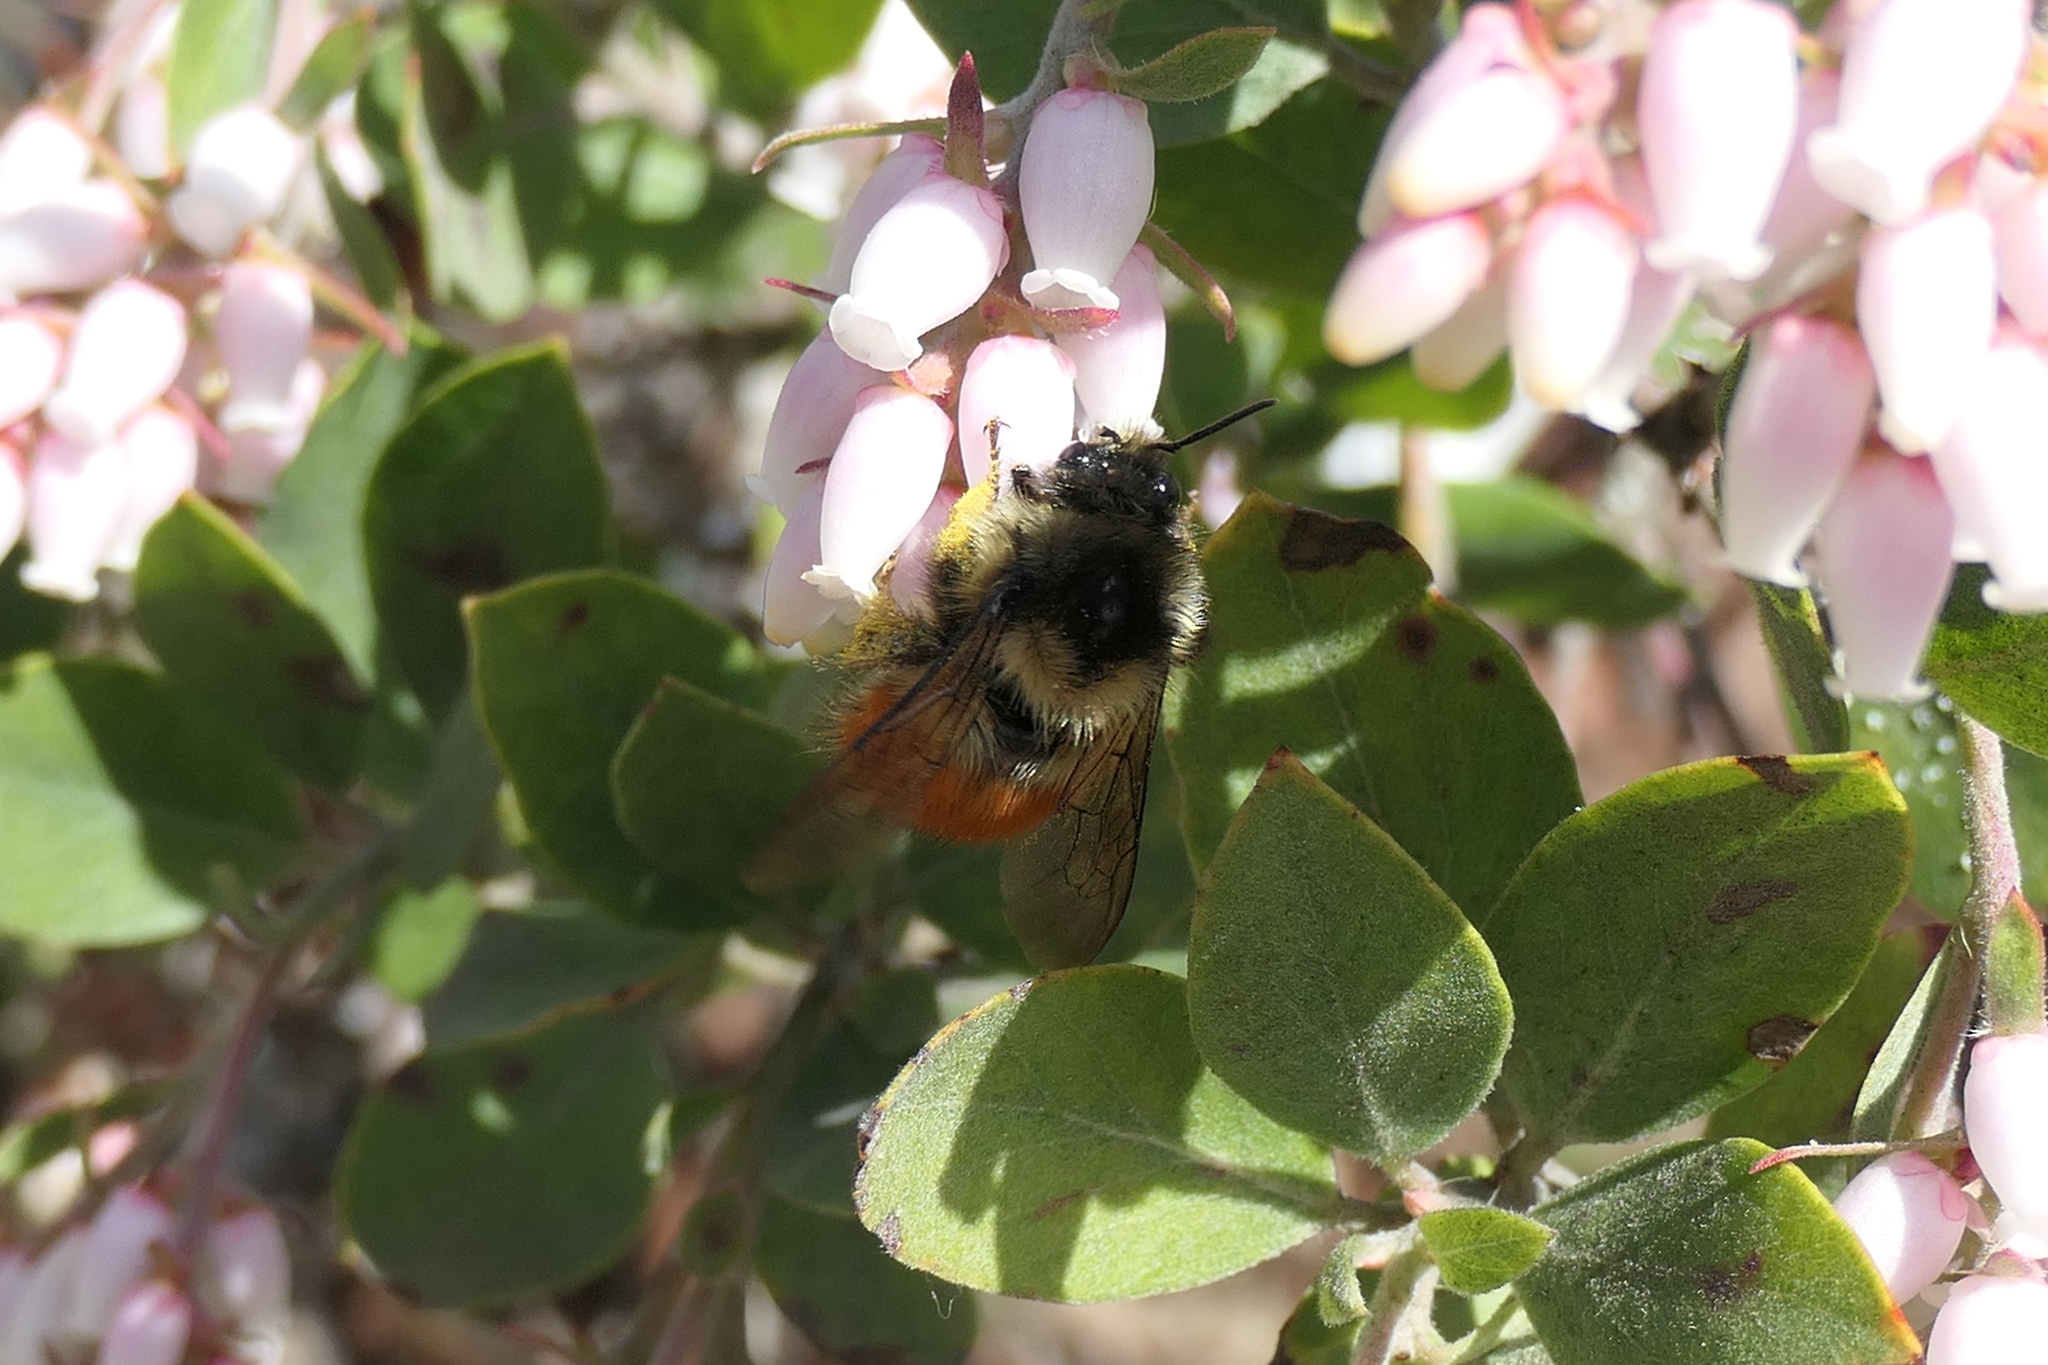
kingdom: Animalia
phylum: Arthropoda
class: Insecta
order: Hymenoptera
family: Apidae
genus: Bombus
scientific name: Bombus melanopygus
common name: Black tail bumble bee
